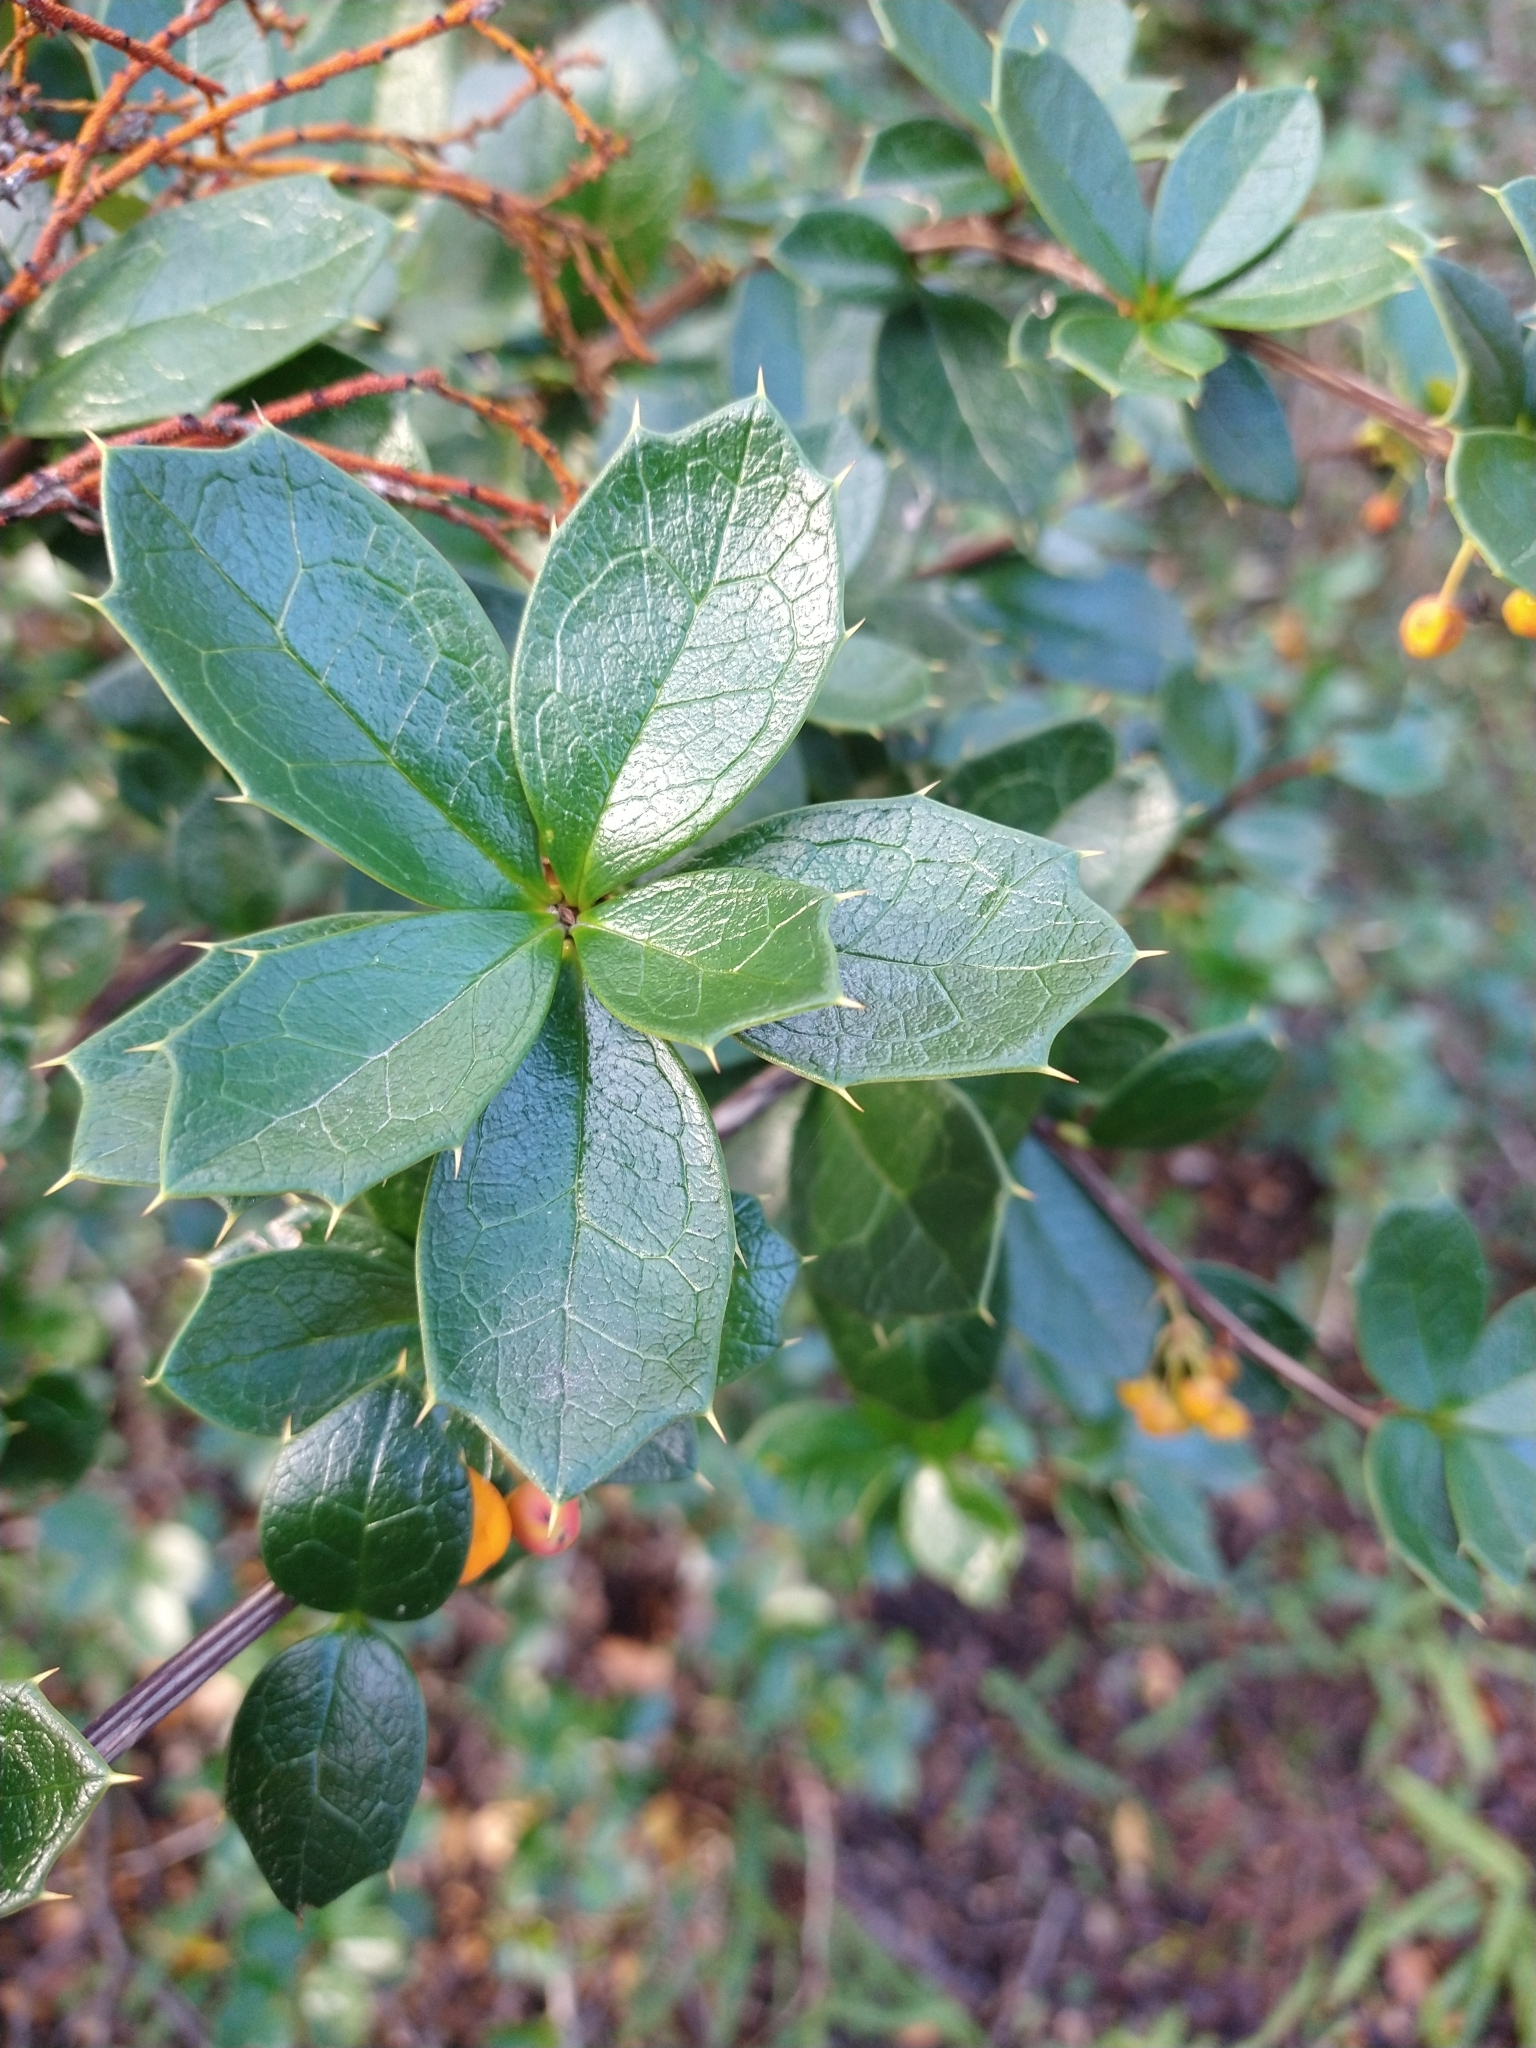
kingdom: Plantae
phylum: Tracheophyta
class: Magnoliopsida
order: Ranunculales
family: Berberidaceae
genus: Berberis
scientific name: Berberis ilicifolia
